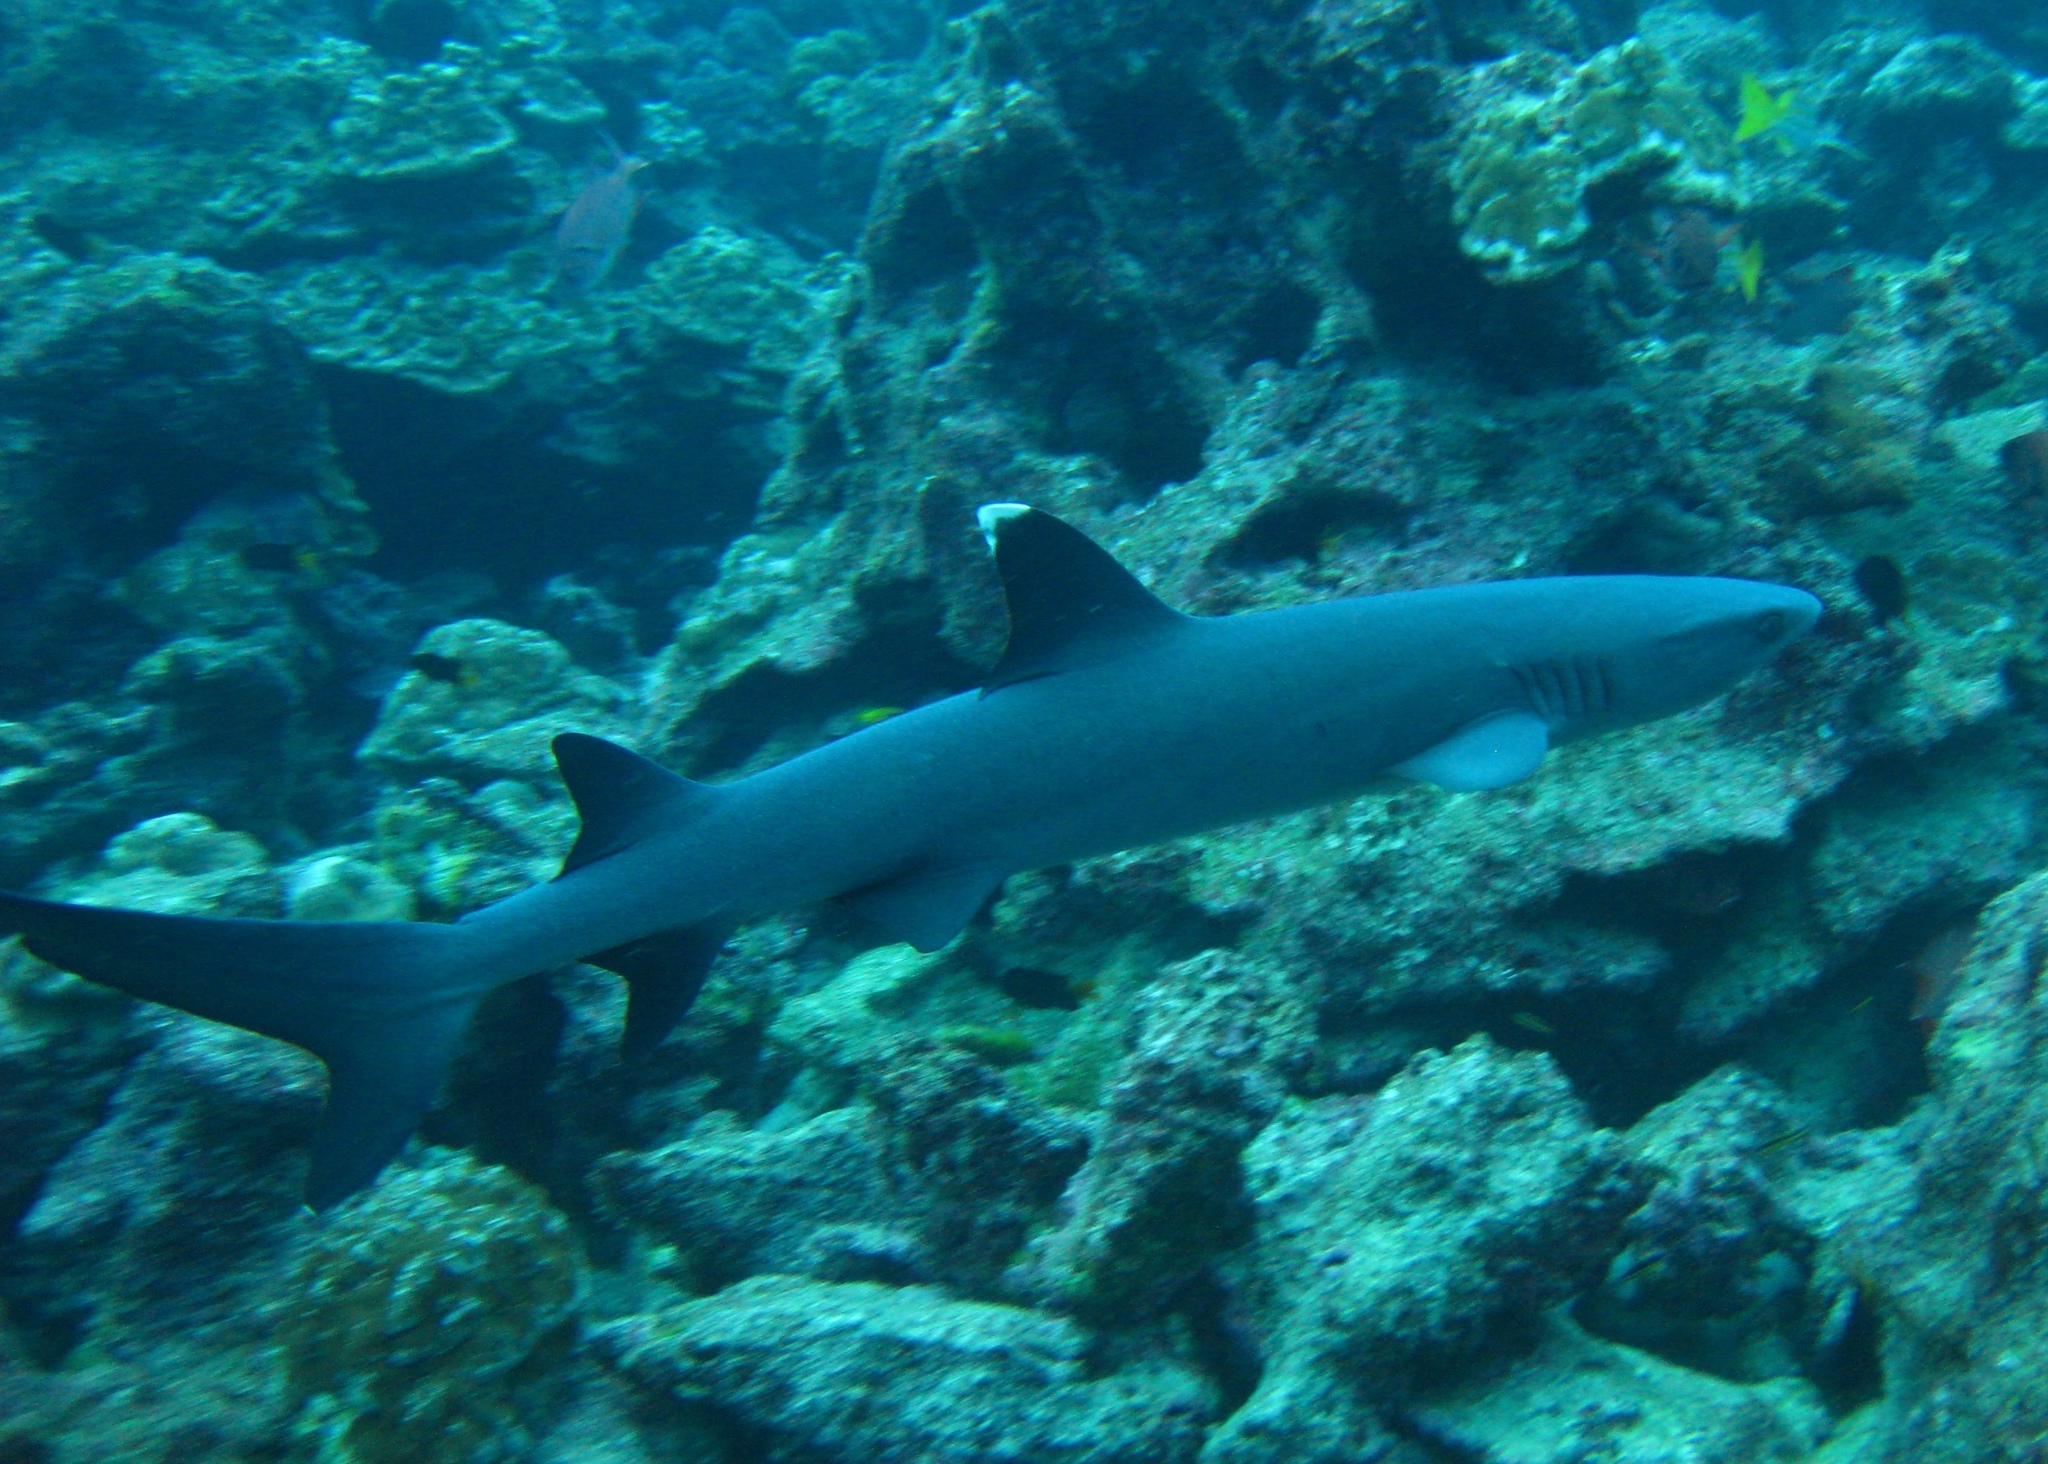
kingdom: Animalia
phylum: Chordata
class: Elasmobranchii
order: Carcharhiniformes
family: Carcharhinidae
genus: Triaenodon
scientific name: Triaenodon obesus
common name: Whitetip reef shark
